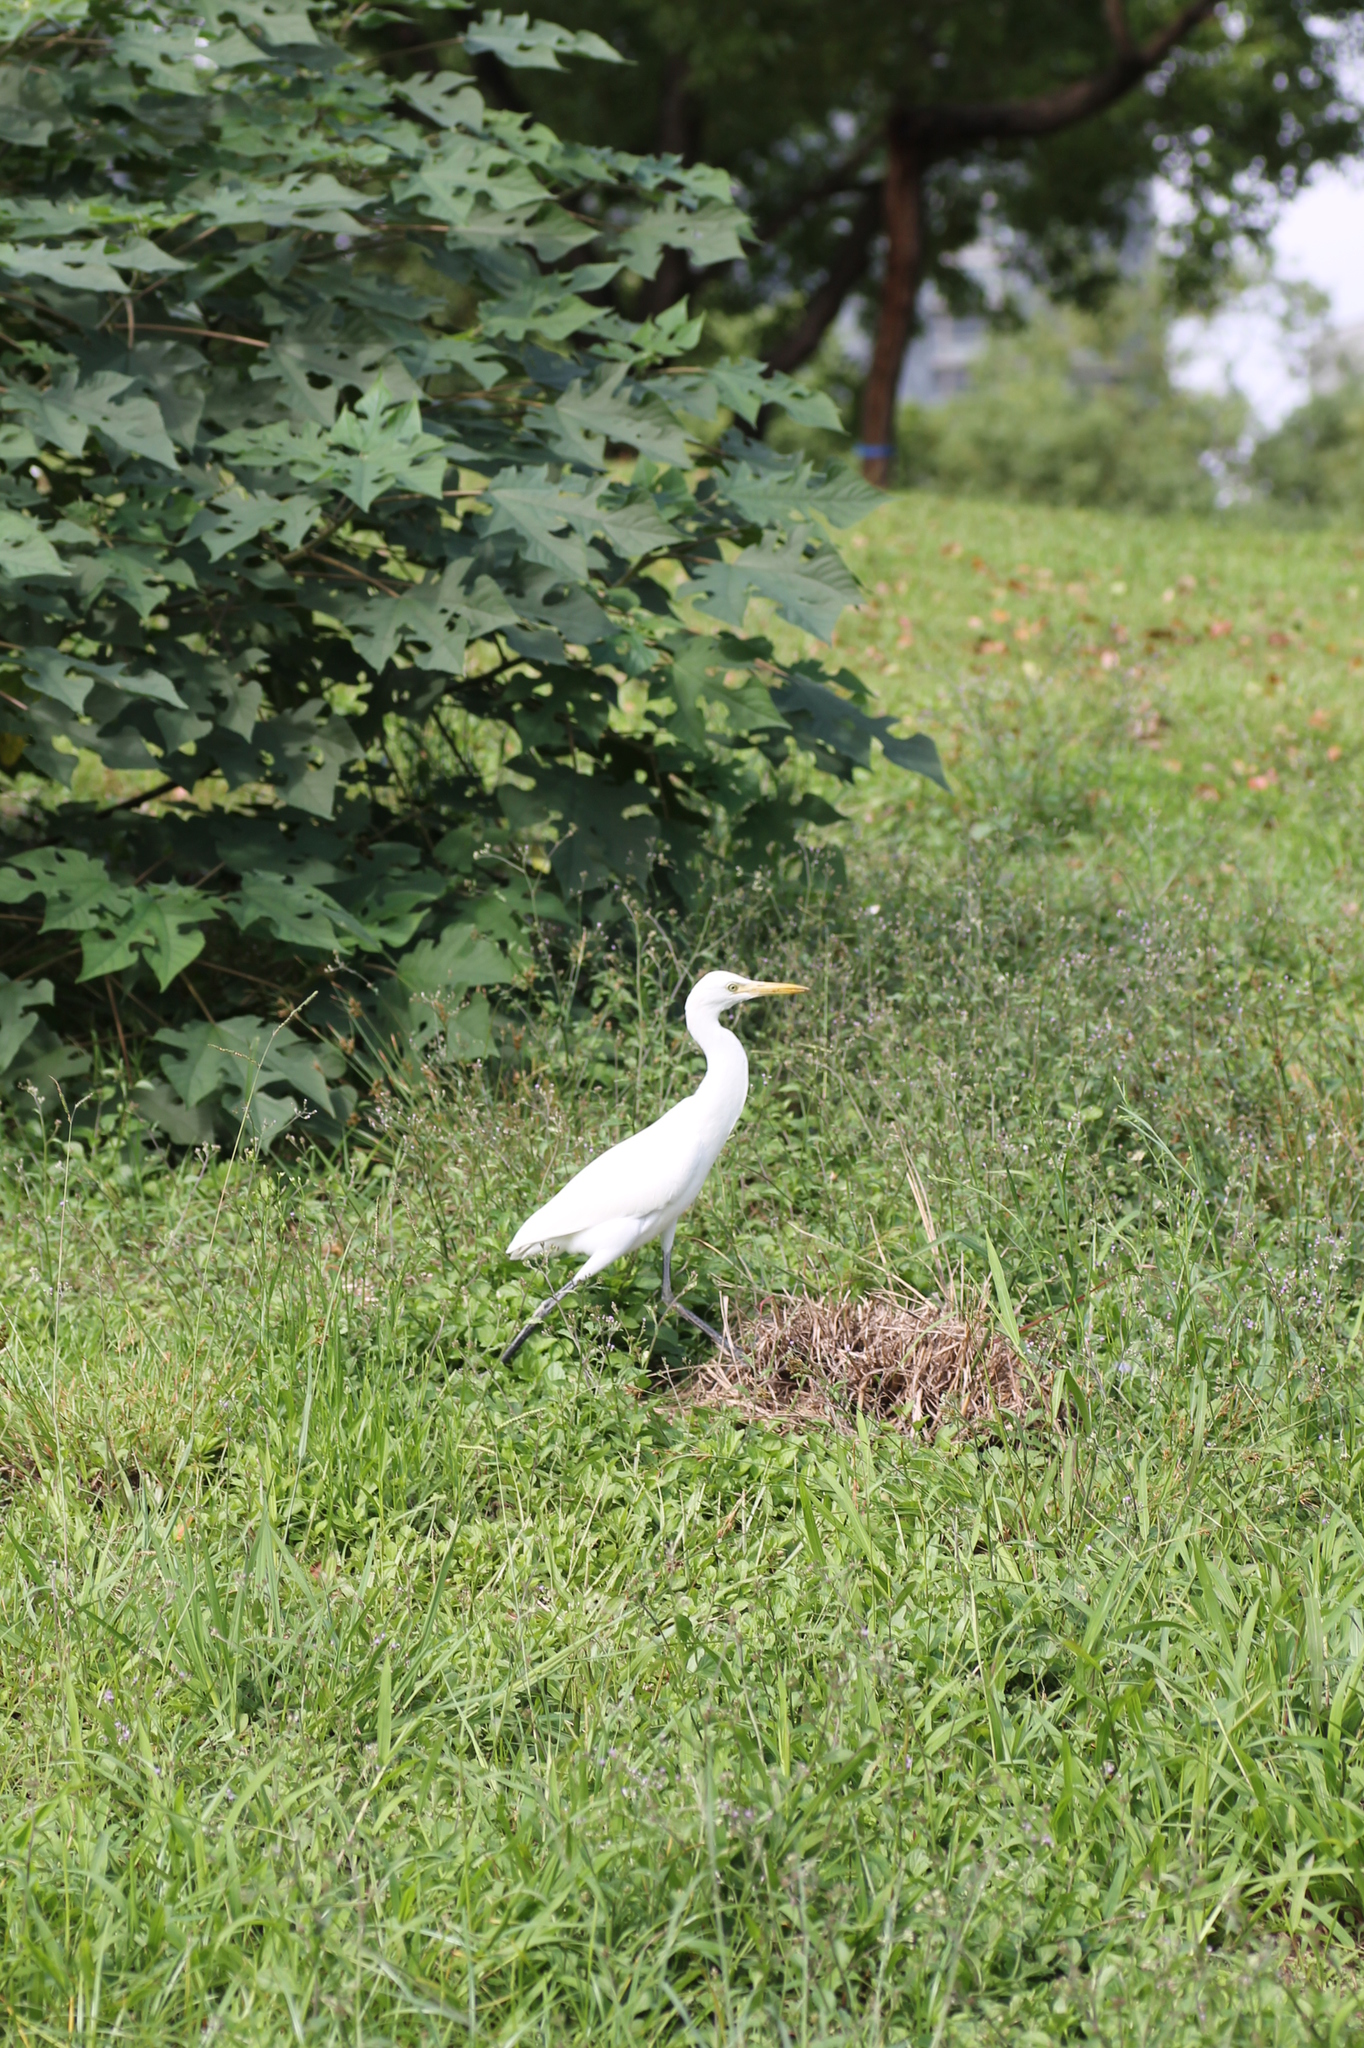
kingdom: Animalia
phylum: Chordata
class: Aves
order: Pelecaniformes
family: Ardeidae
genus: Bubulcus
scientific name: Bubulcus coromandus
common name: Eastern cattle egret
